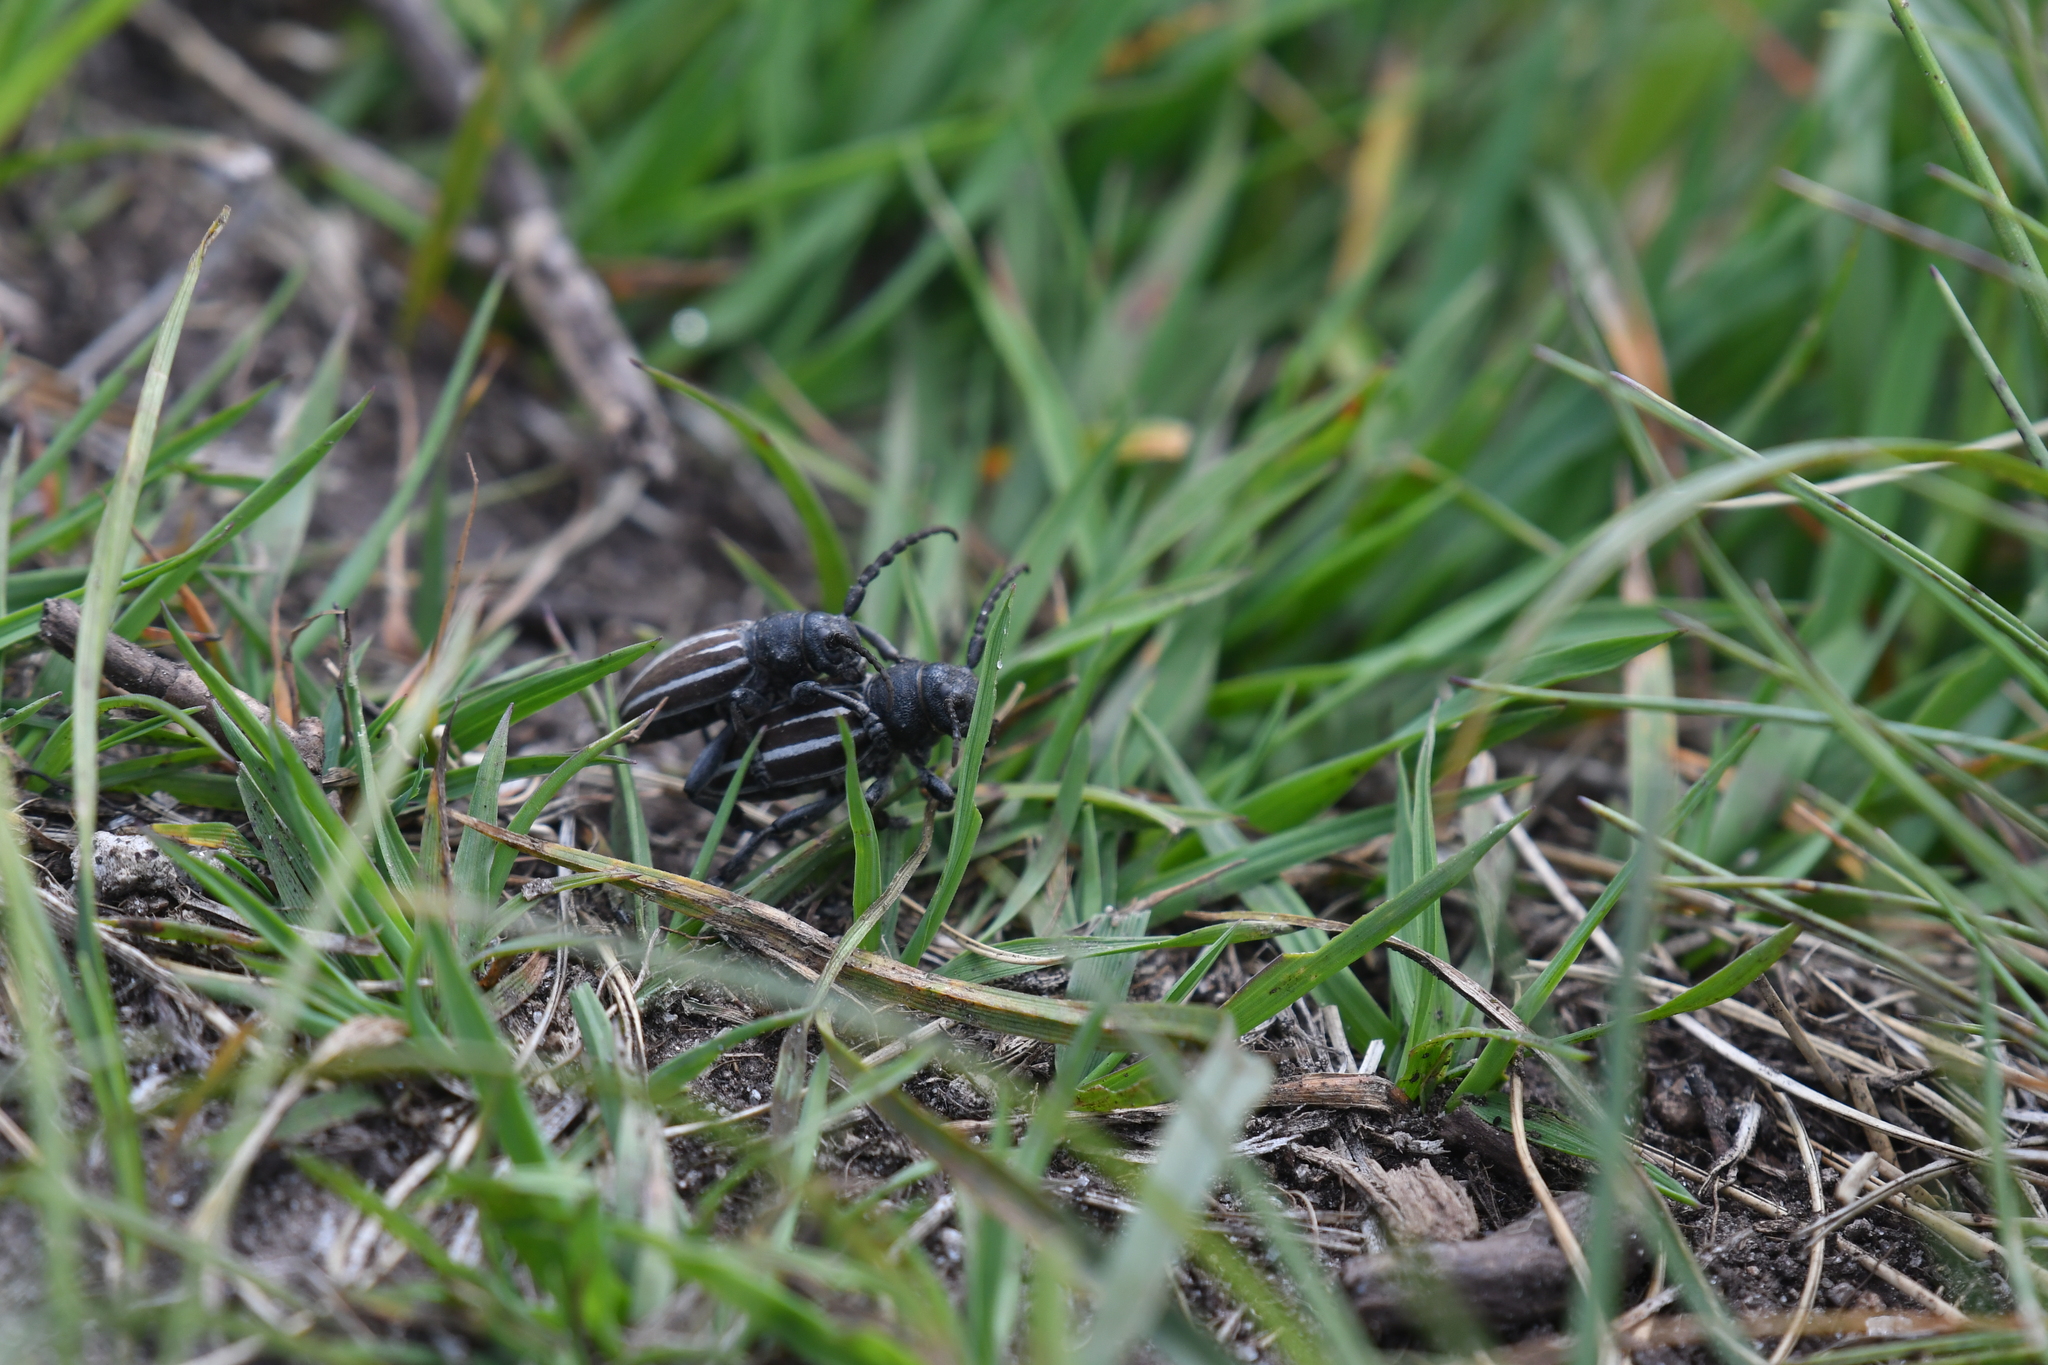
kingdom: Animalia
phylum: Arthropoda
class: Insecta
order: Coleoptera
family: Cerambycidae
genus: Iberodorcadion
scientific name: Iberodorcadion fuliginator
